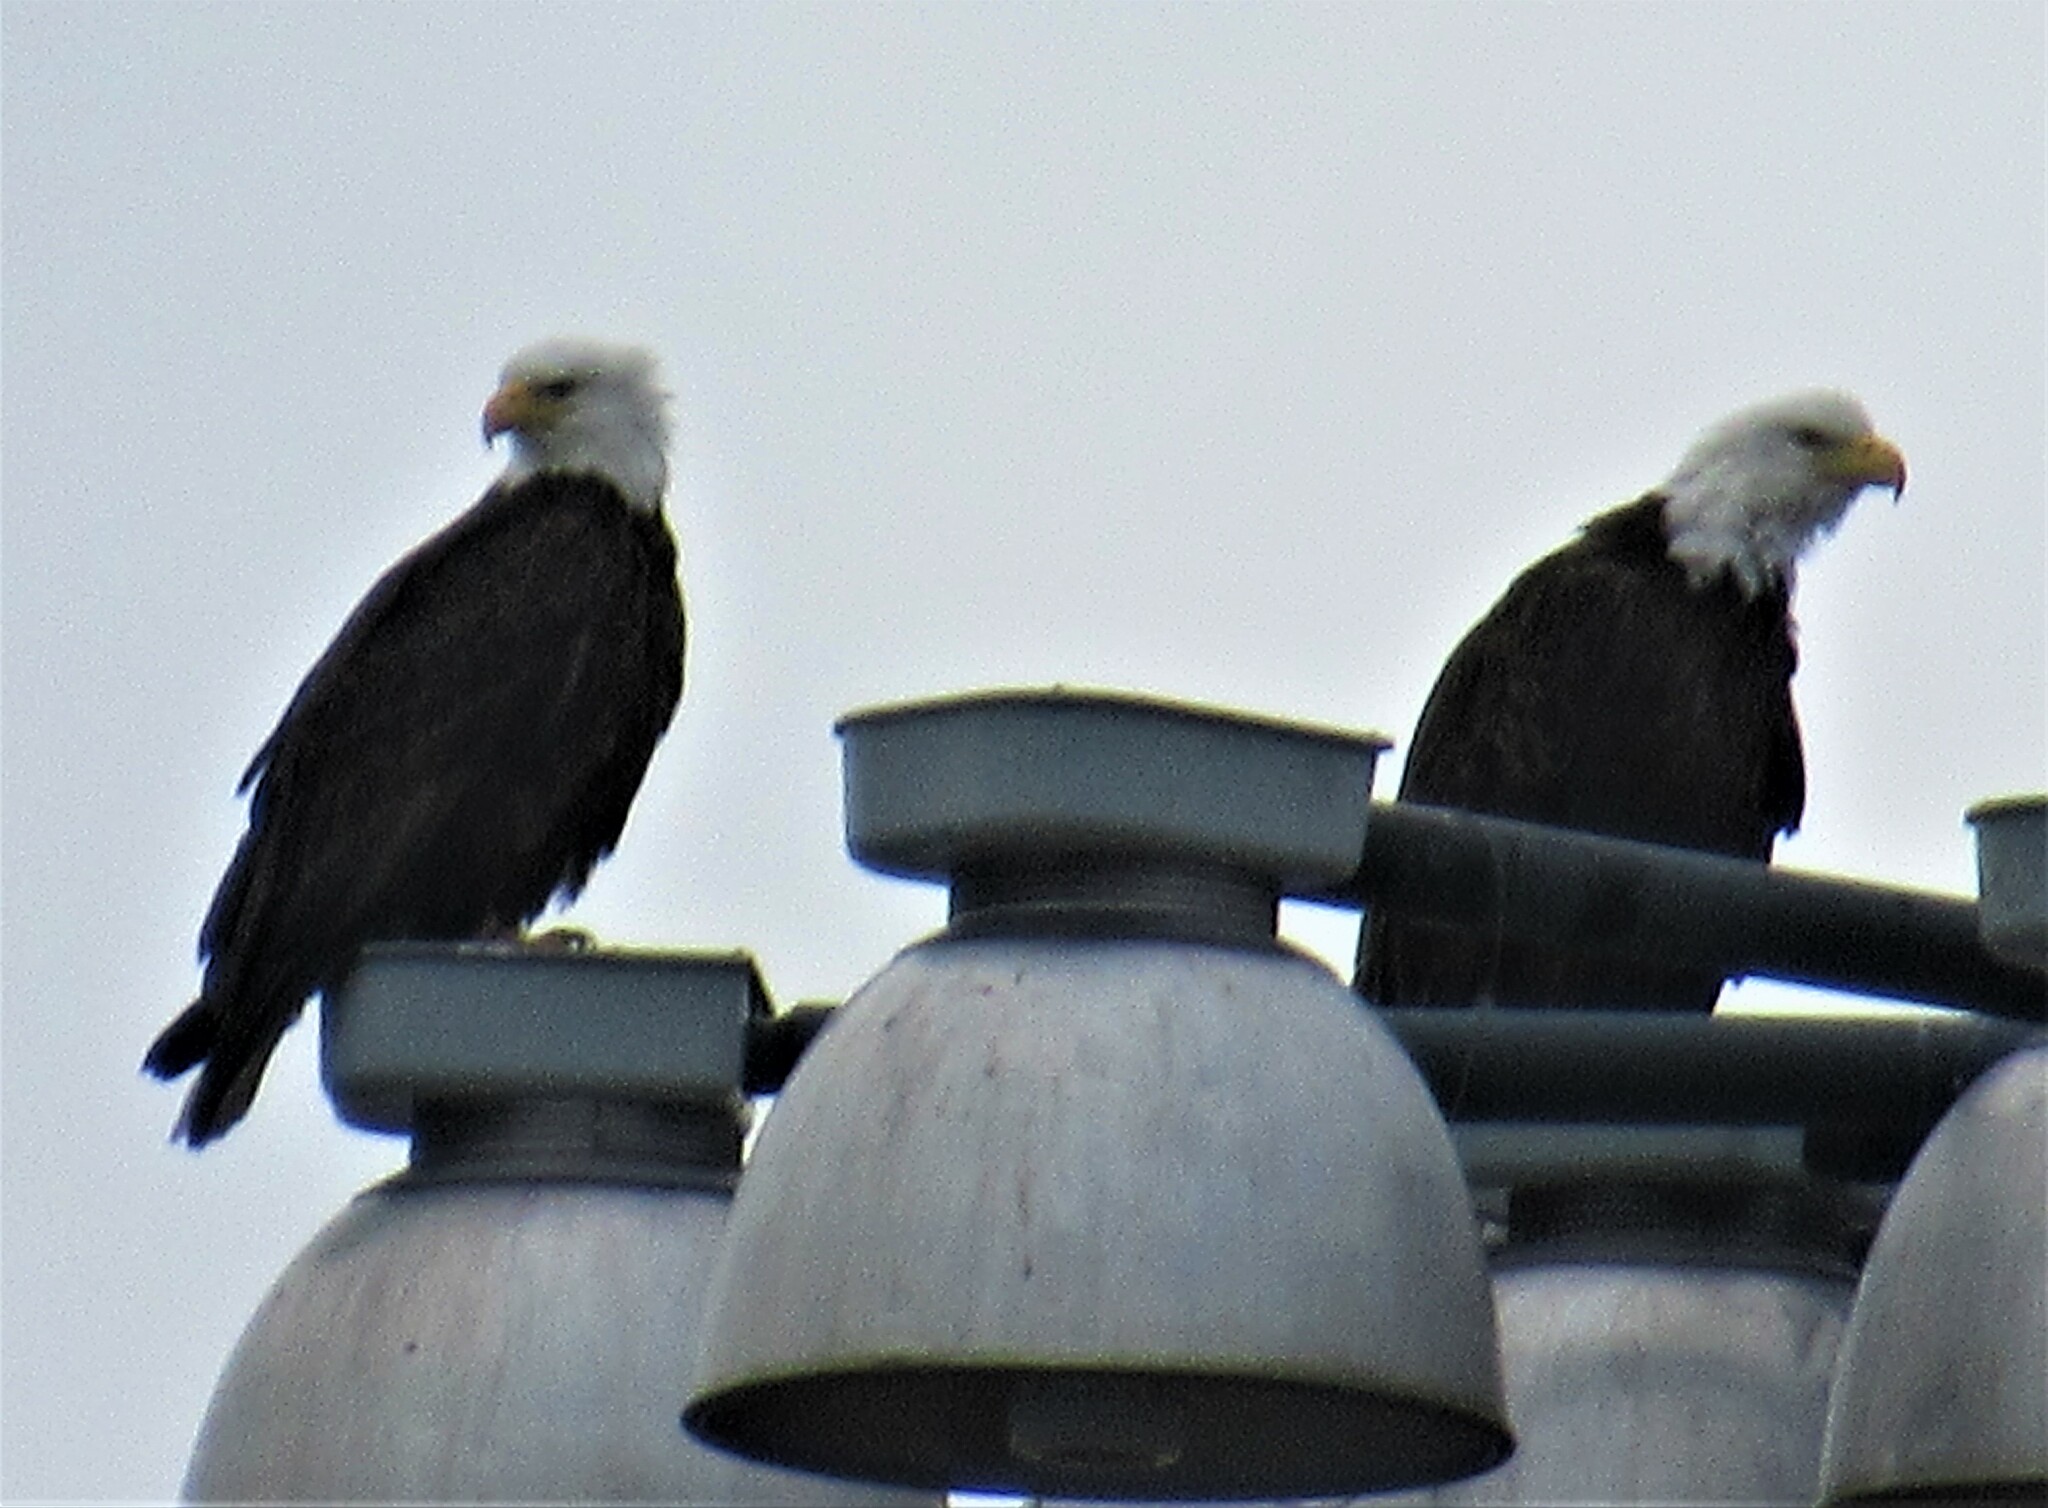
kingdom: Animalia
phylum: Chordata
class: Aves
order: Accipitriformes
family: Accipitridae
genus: Haliaeetus
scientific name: Haliaeetus leucocephalus
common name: Bald eagle
